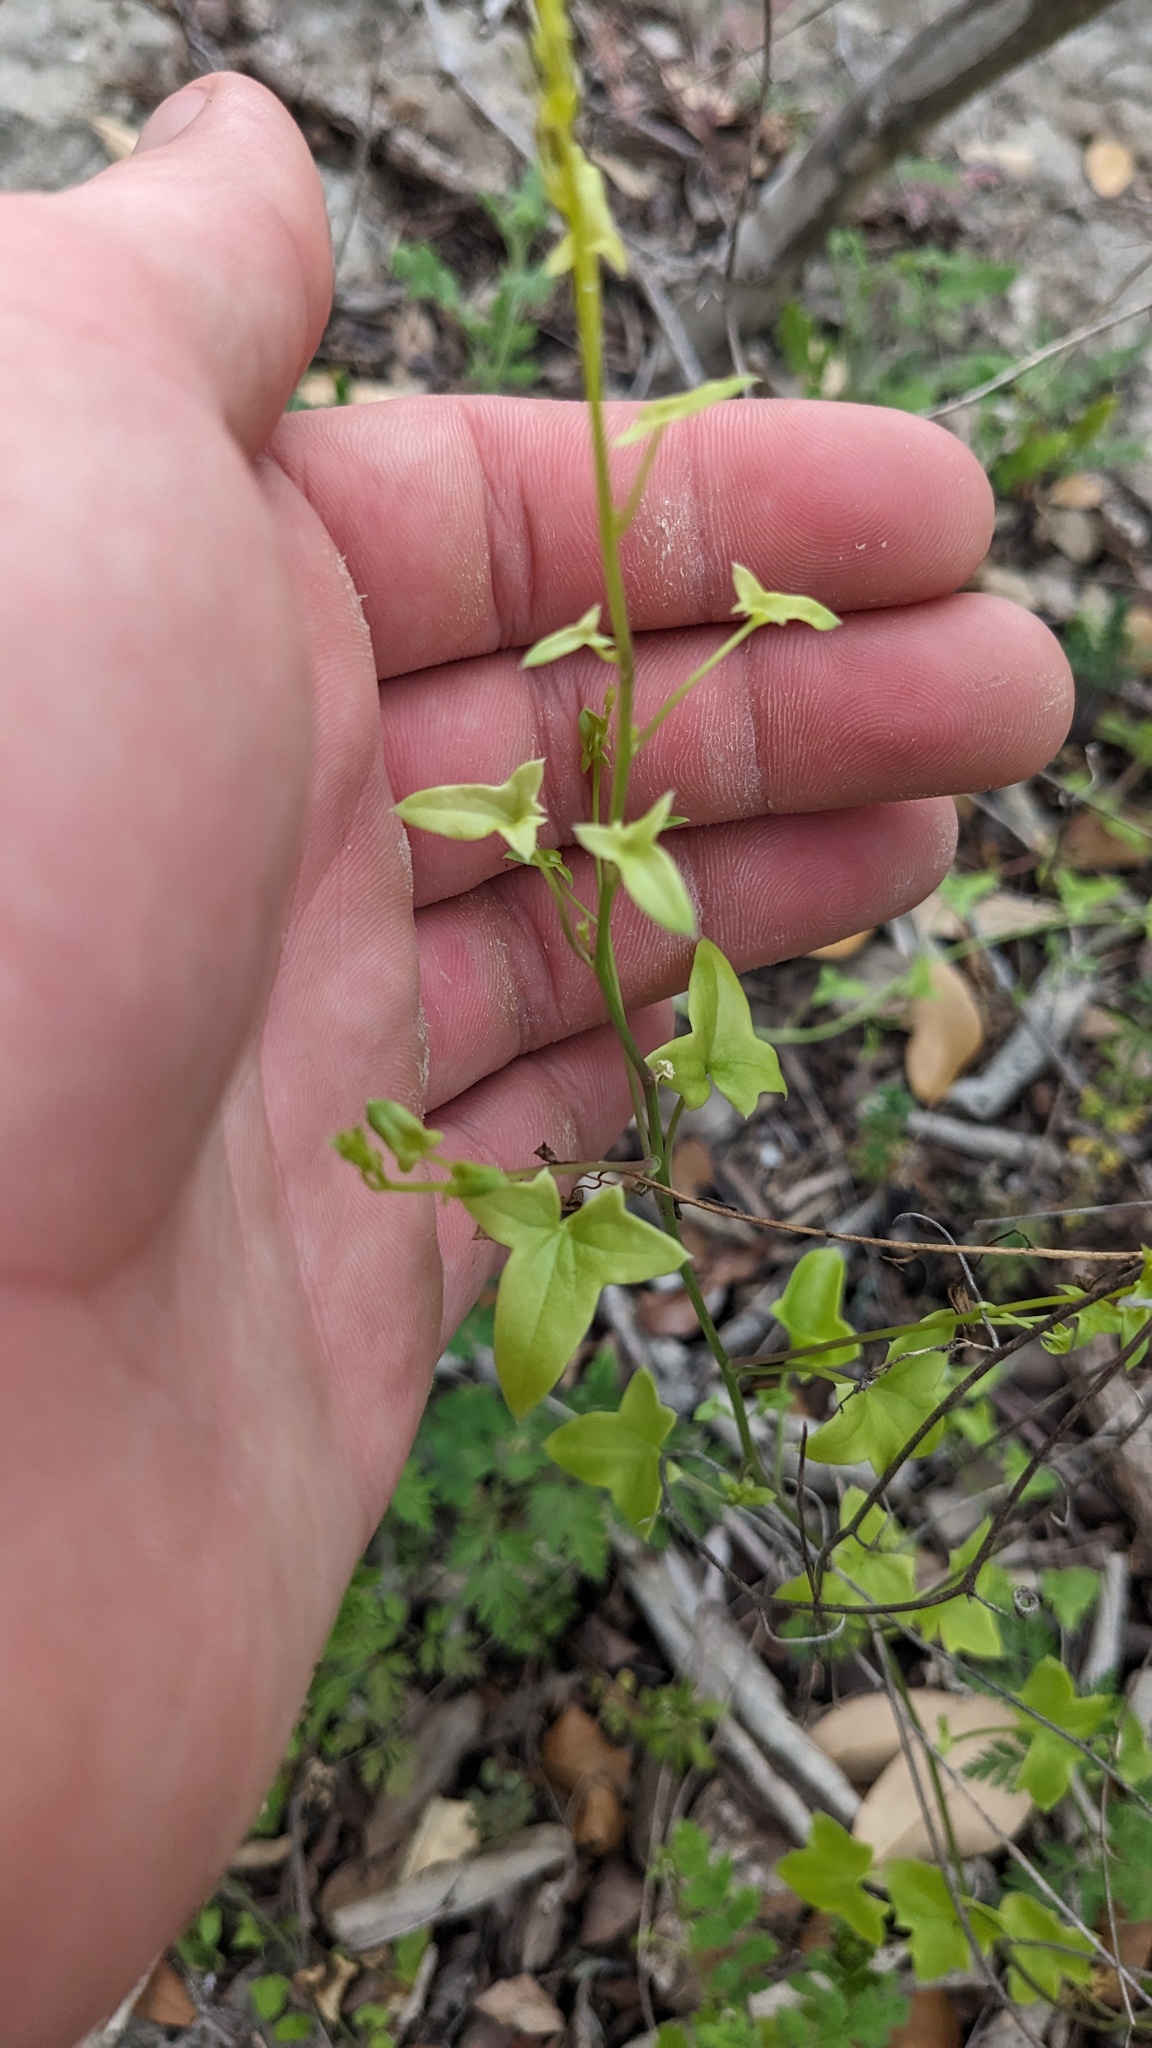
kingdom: Plantae
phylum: Tracheophyta
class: Magnoliopsida
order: Lamiales
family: Plantaginaceae
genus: Maurandella
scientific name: Maurandella antirrhiniflora
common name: Violet twining-snapdragon
